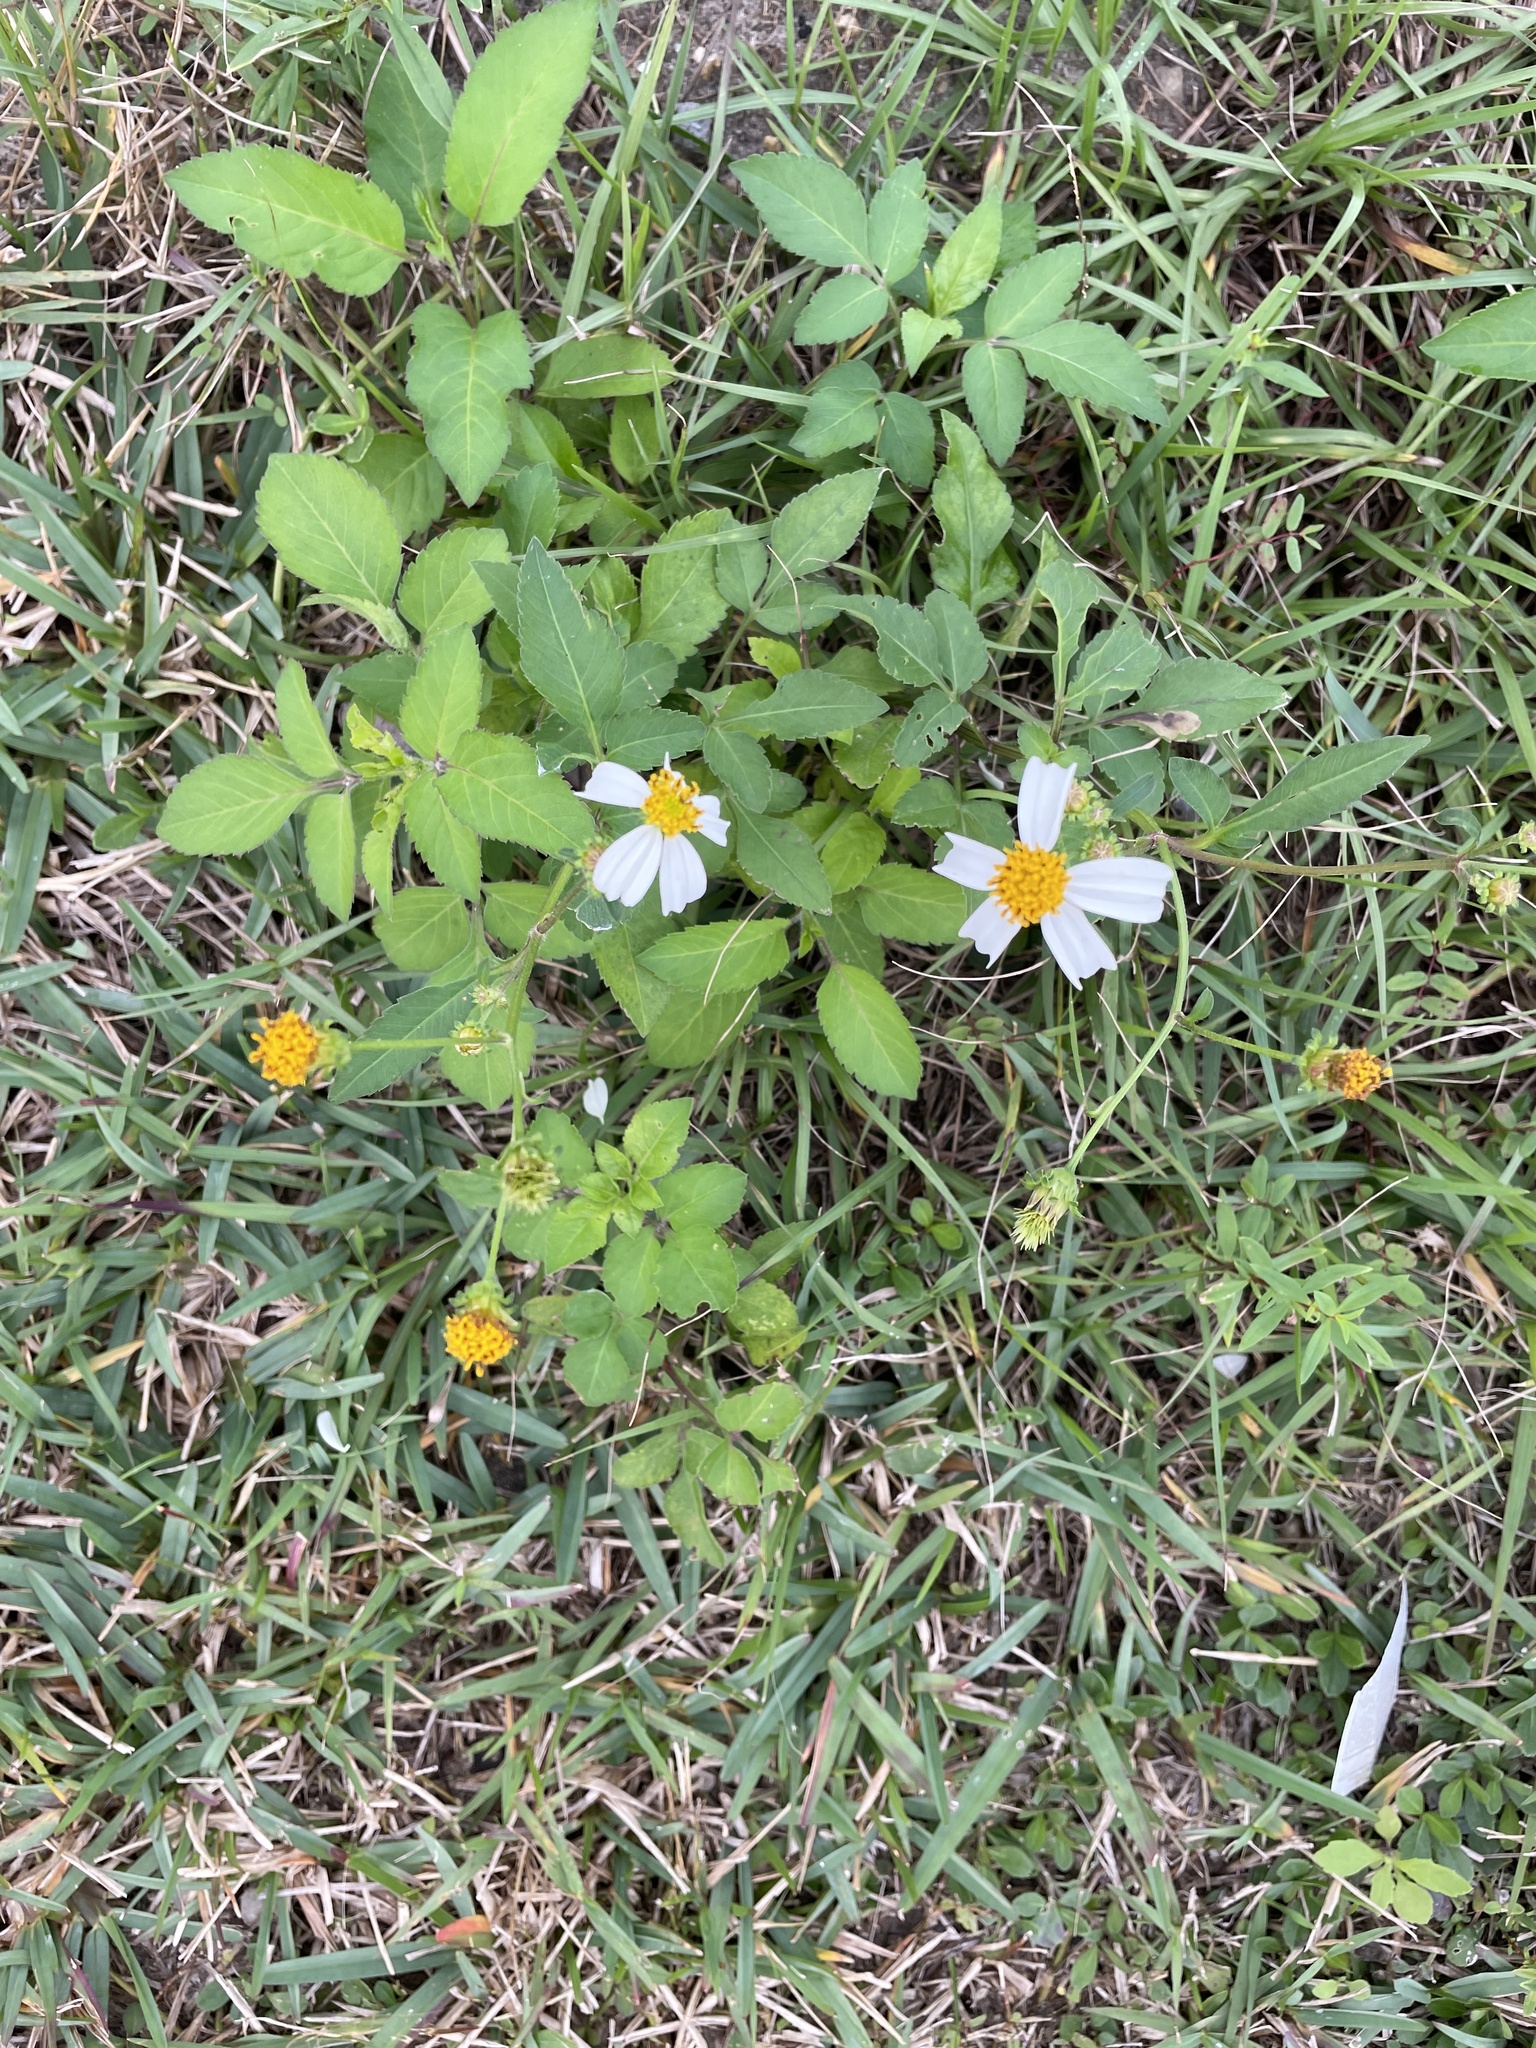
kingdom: Plantae
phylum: Tracheophyta
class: Magnoliopsida
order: Asterales
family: Asteraceae
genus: Bidens
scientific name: Bidens alba
